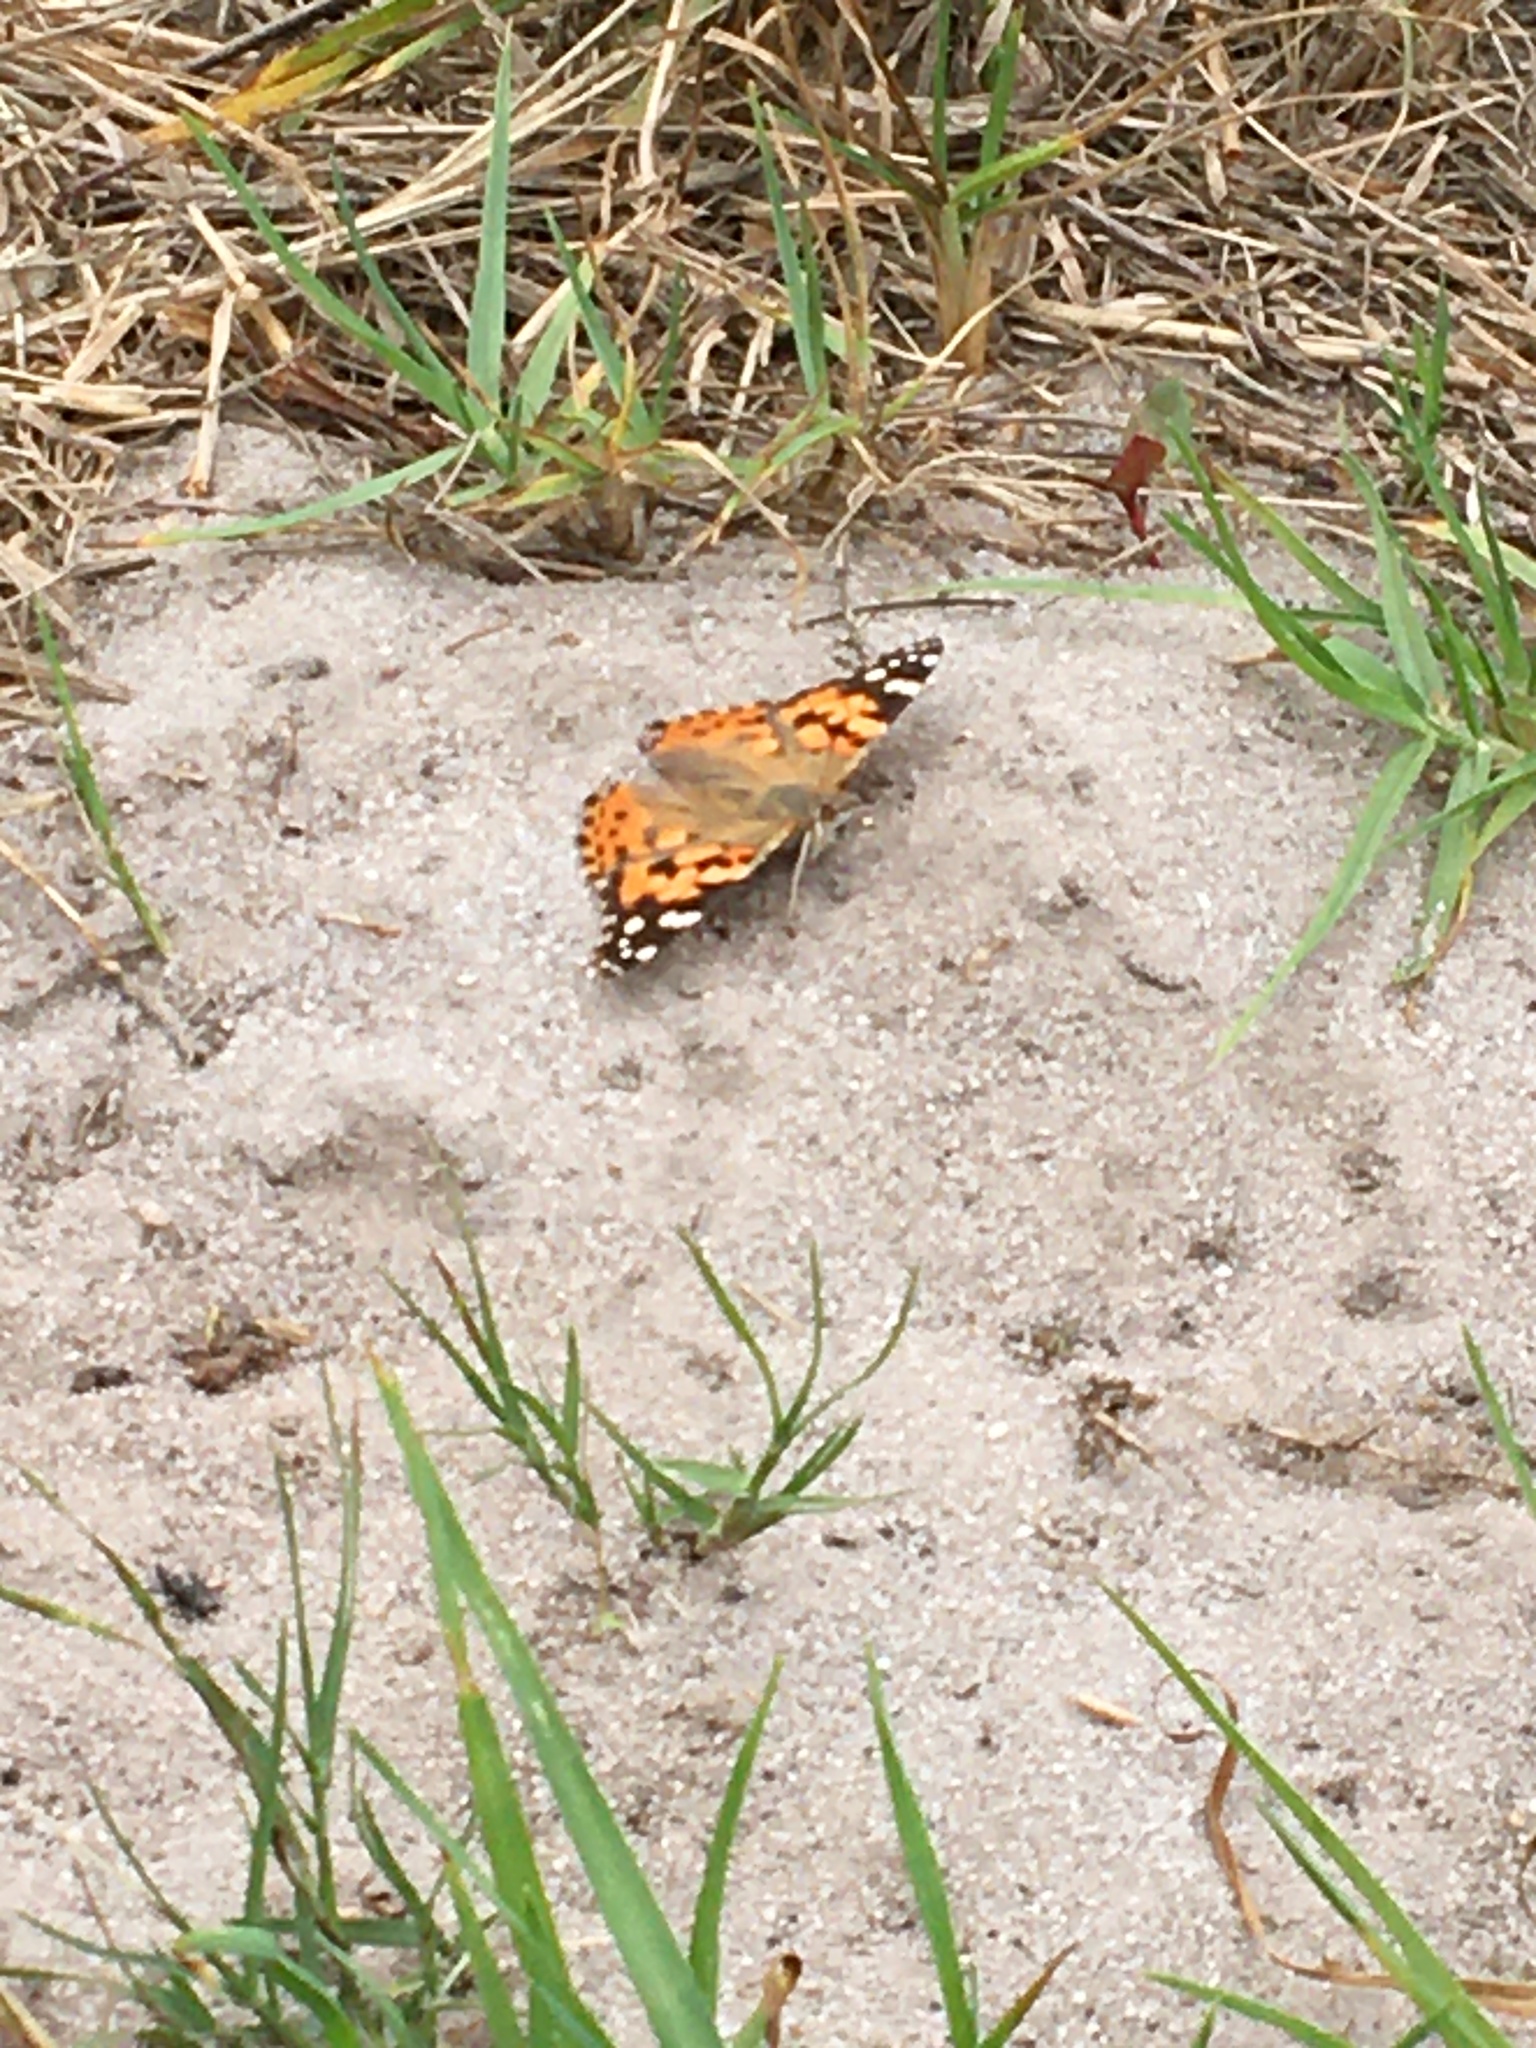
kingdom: Animalia
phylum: Arthropoda
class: Insecta
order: Lepidoptera
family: Nymphalidae
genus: Vanessa
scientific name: Vanessa cardui
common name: Painted lady
